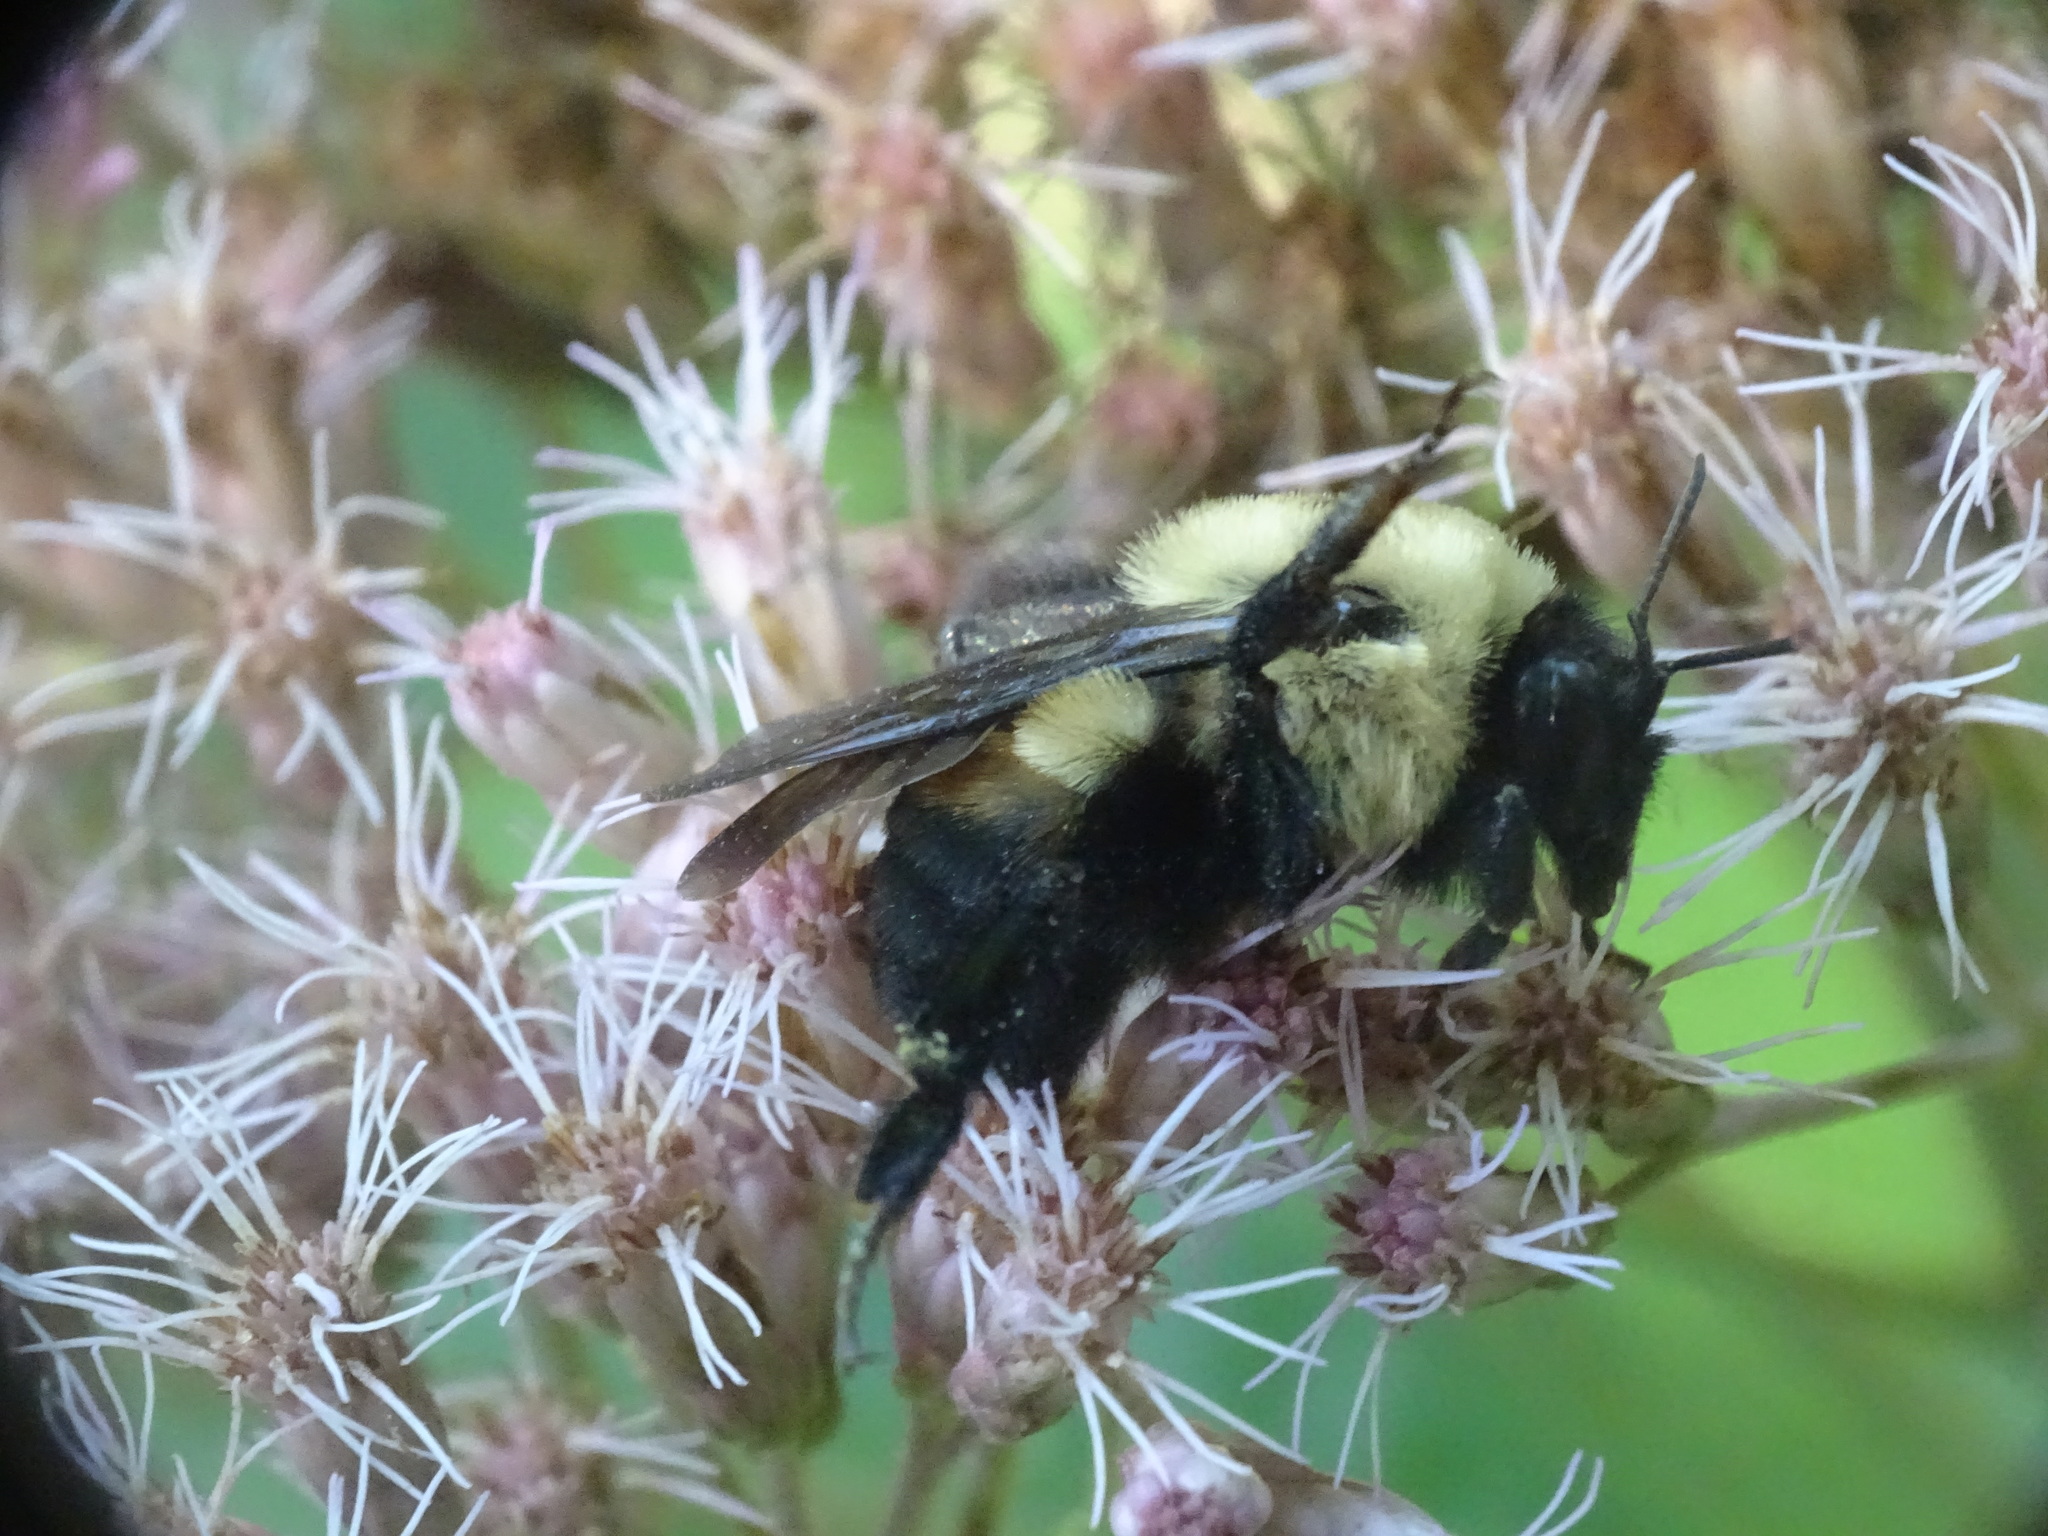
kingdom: Animalia
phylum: Arthropoda
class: Insecta
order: Hymenoptera
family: Apidae
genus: Bombus
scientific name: Bombus griseocollis
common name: Brown-belted bumble bee
